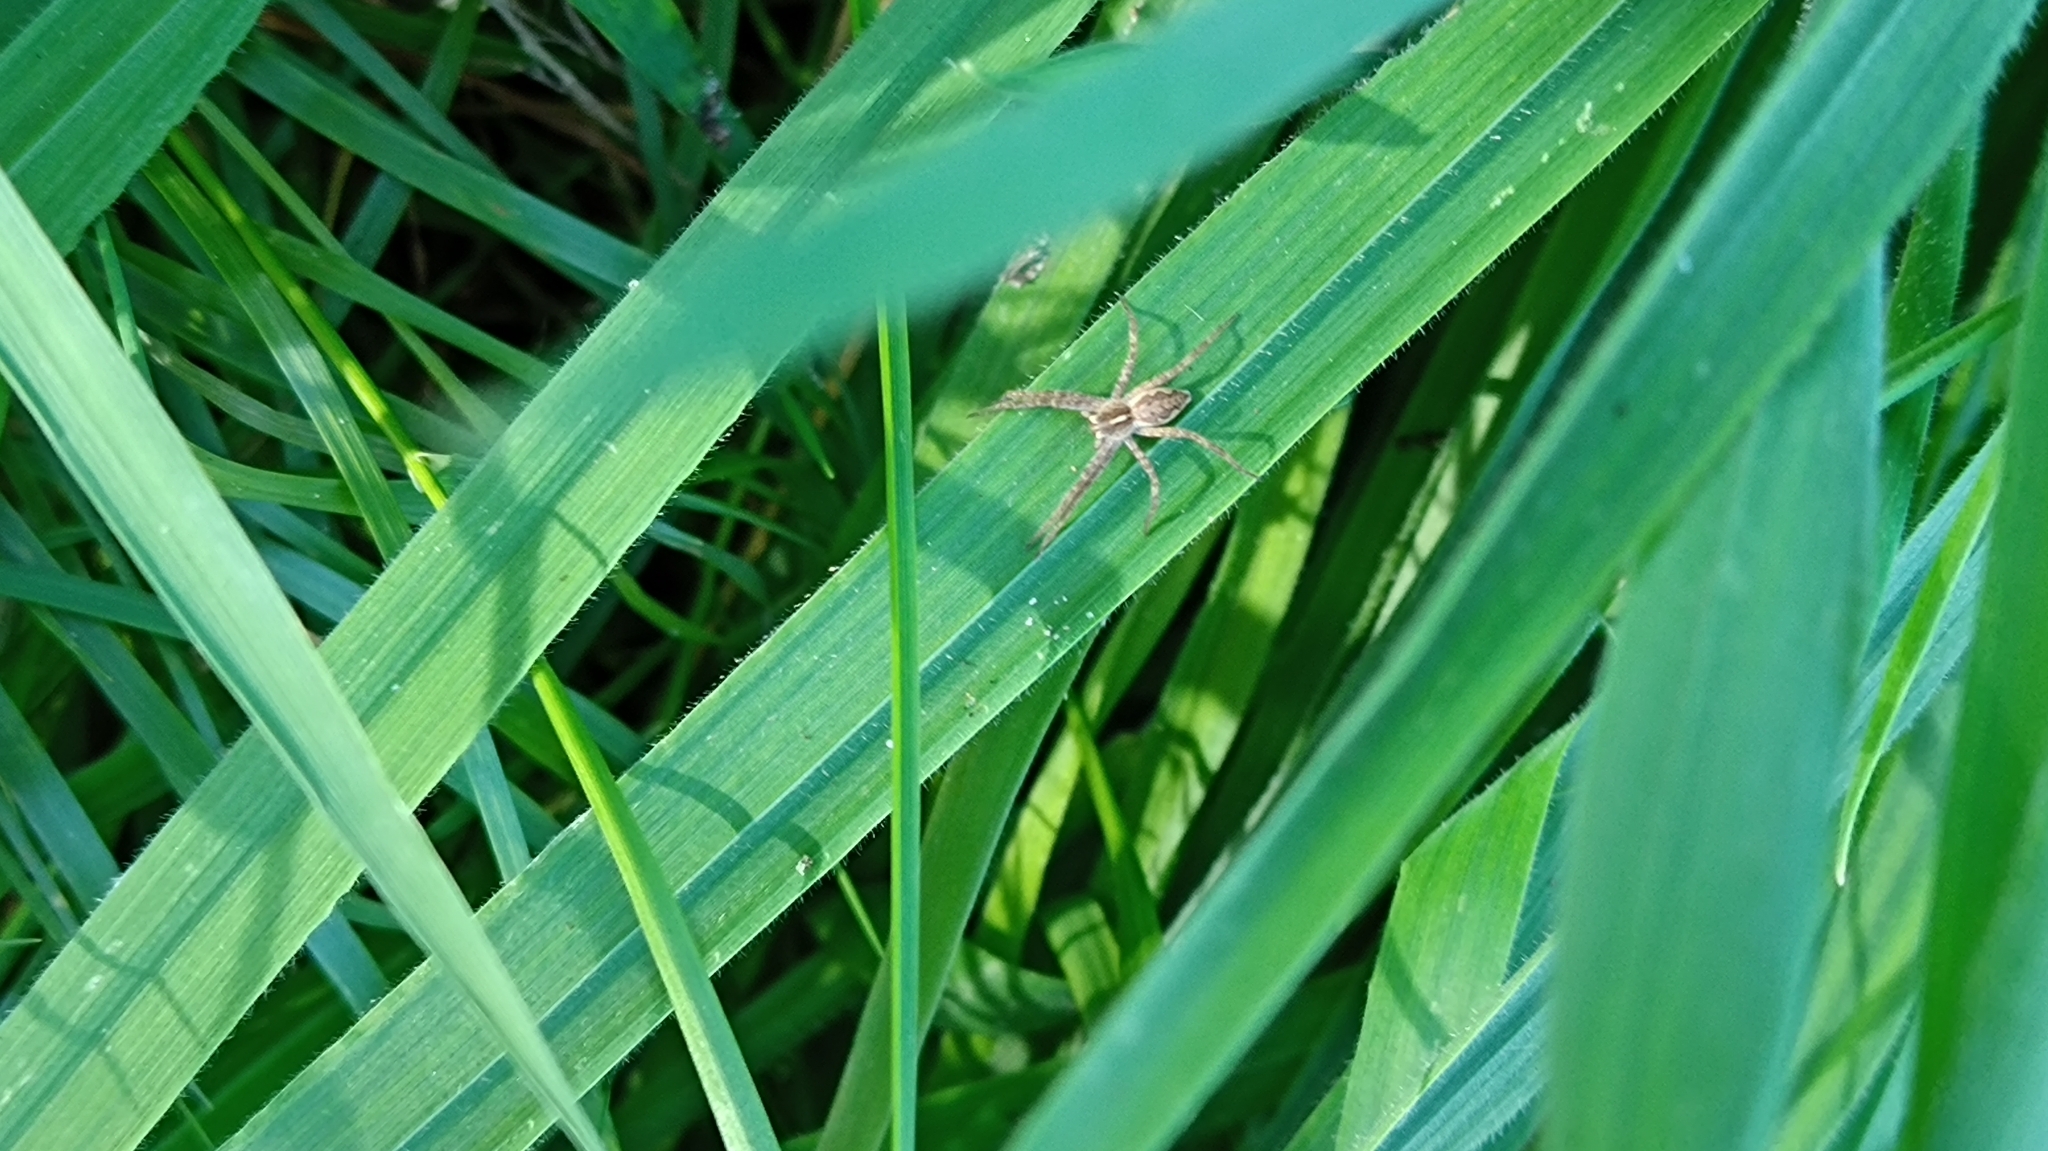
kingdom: Animalia
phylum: Arthropoda
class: Arachnida
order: Araneae
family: Pisauridae
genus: Pisaura
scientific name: Pisaura mirabilis
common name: Tent spider
